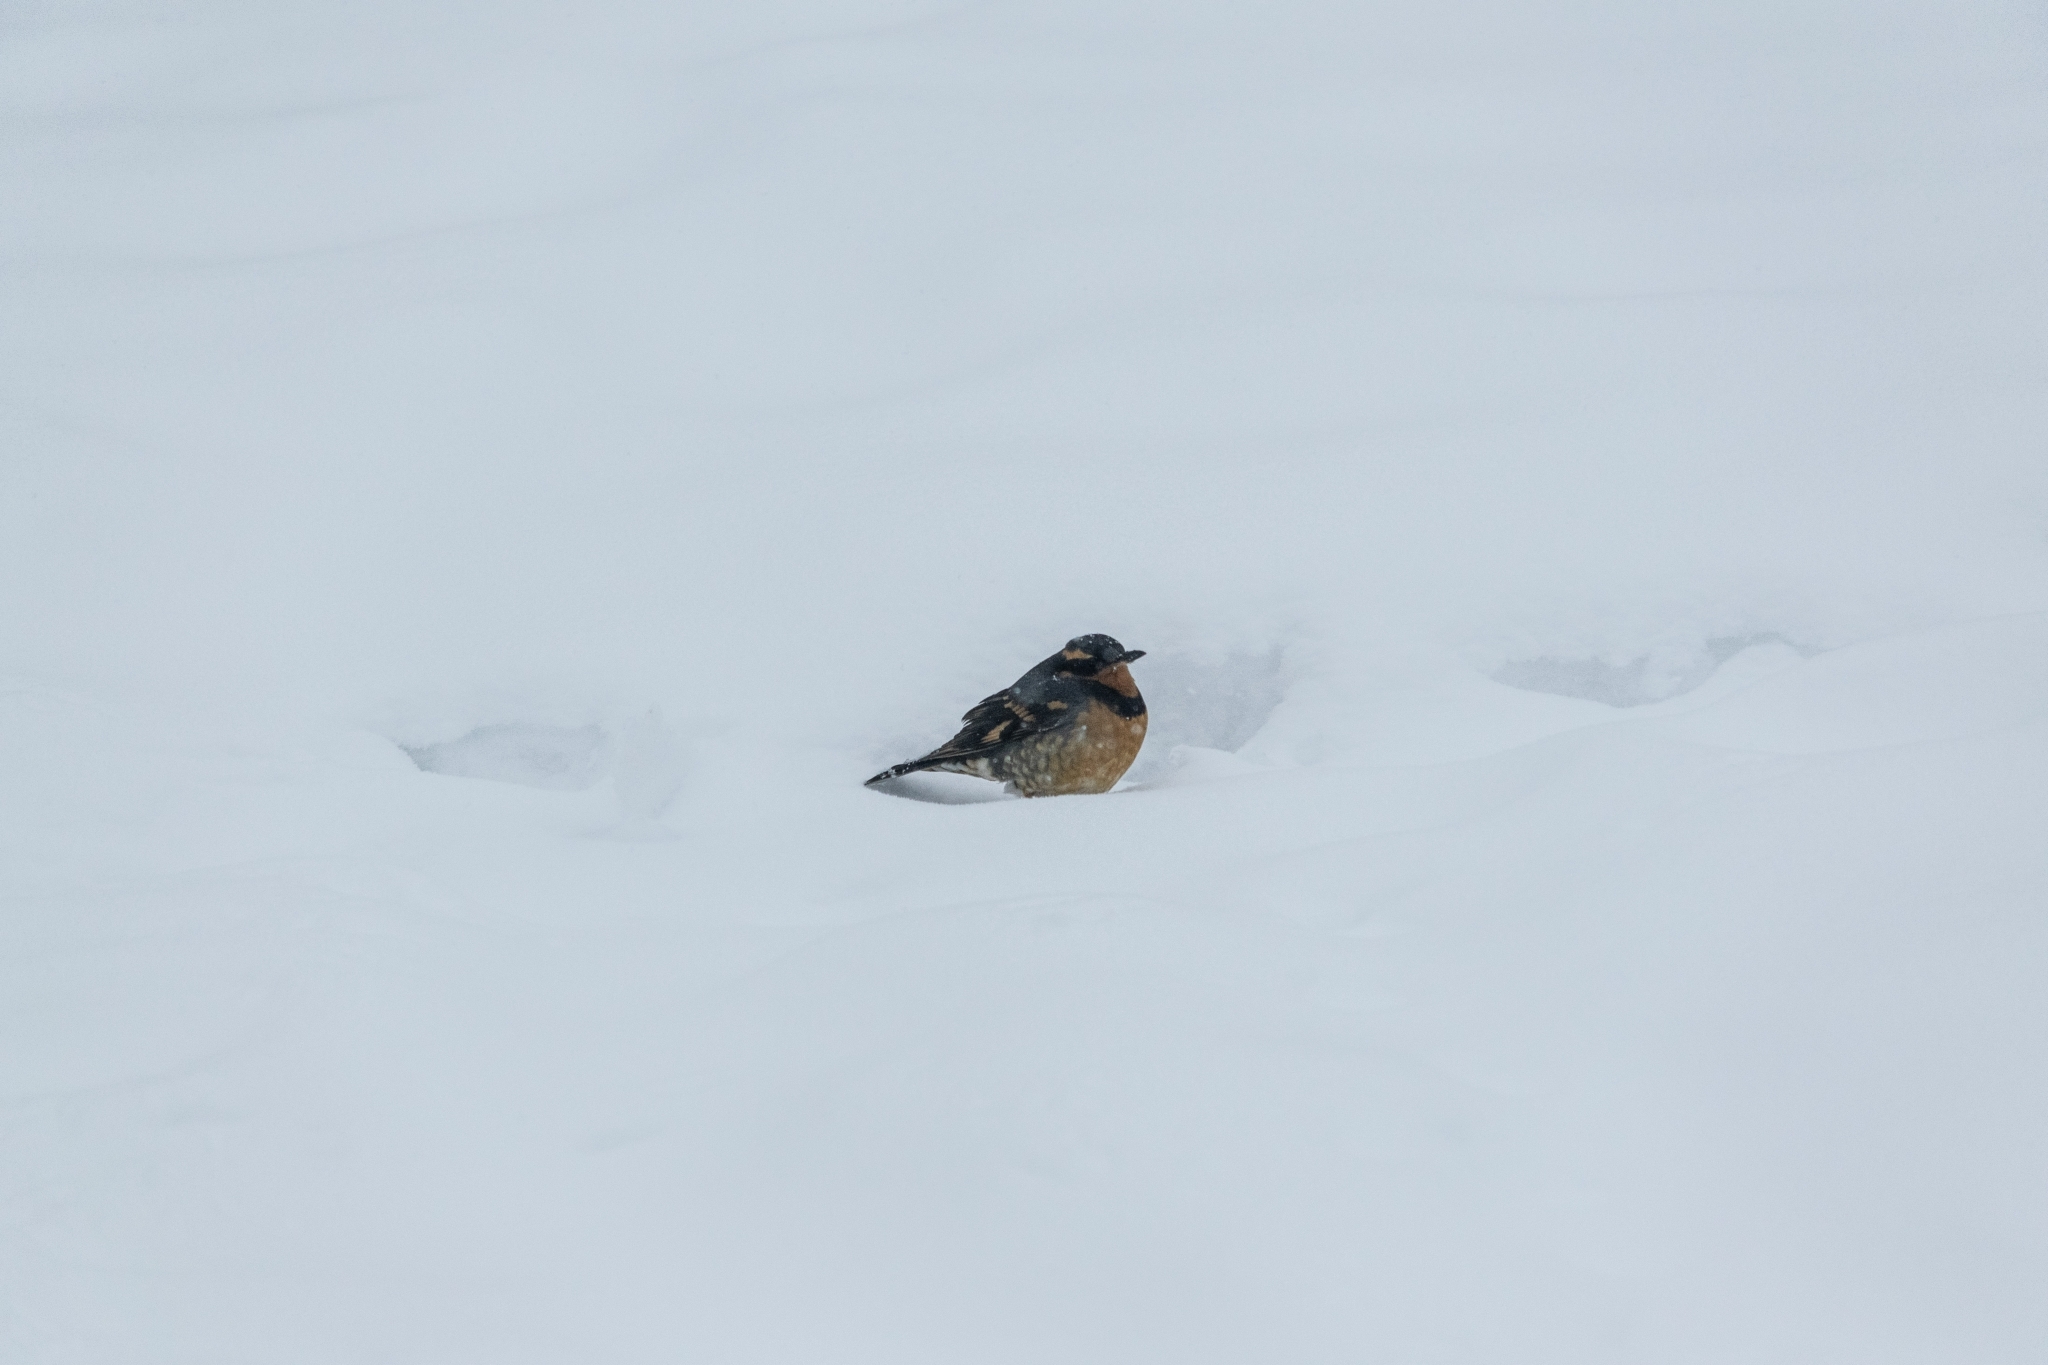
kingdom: Animalia
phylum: Chordata
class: Aves
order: Passeriformes
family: Turdidae
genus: Ixoreus
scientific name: Ixoreus naevius
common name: Varied thrush
